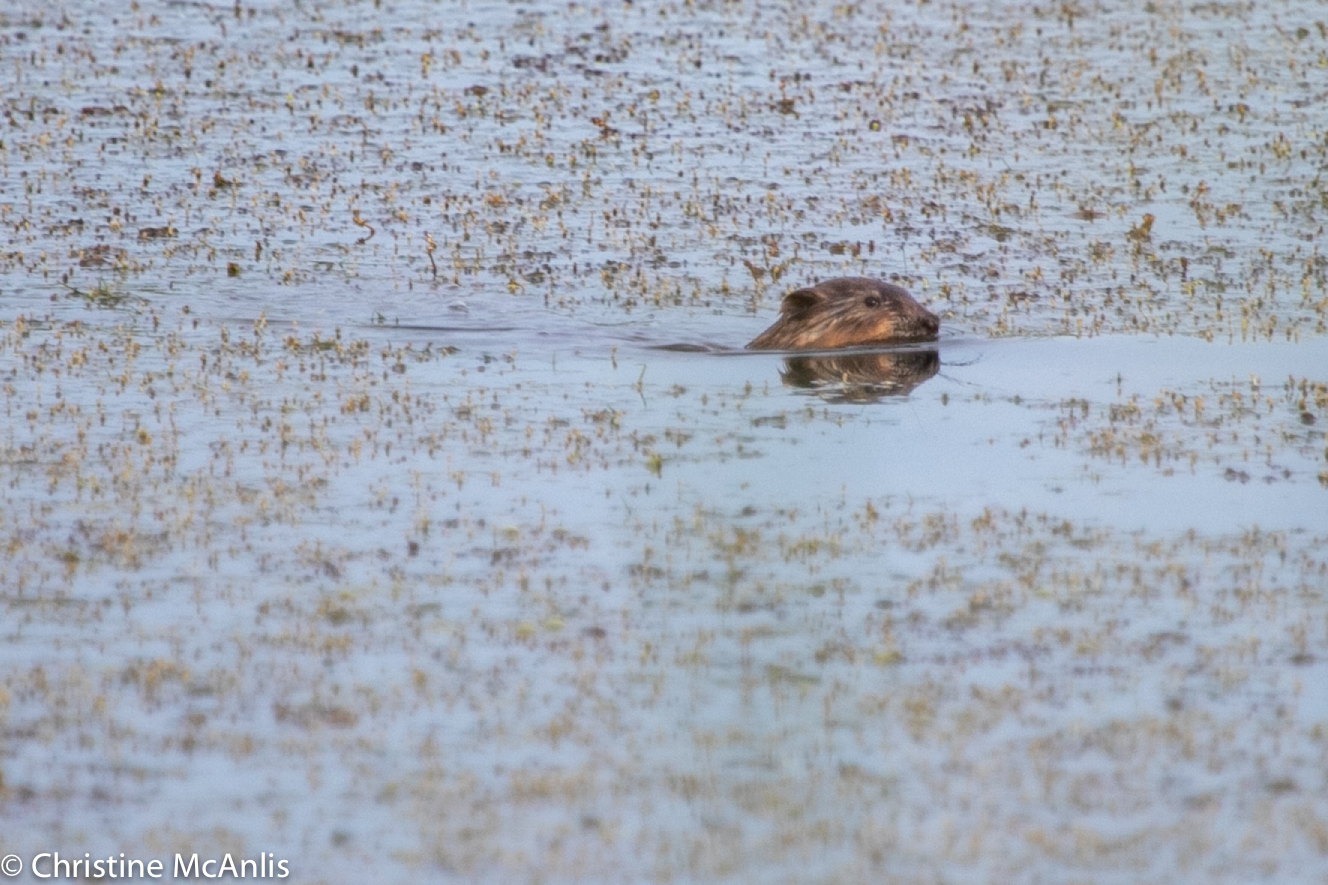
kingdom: Animalia
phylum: Chordata
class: Mammalia
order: Rodentia
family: Cricetidae
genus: Ondatra
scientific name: Ondatra zibethicus
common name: Muskrat
